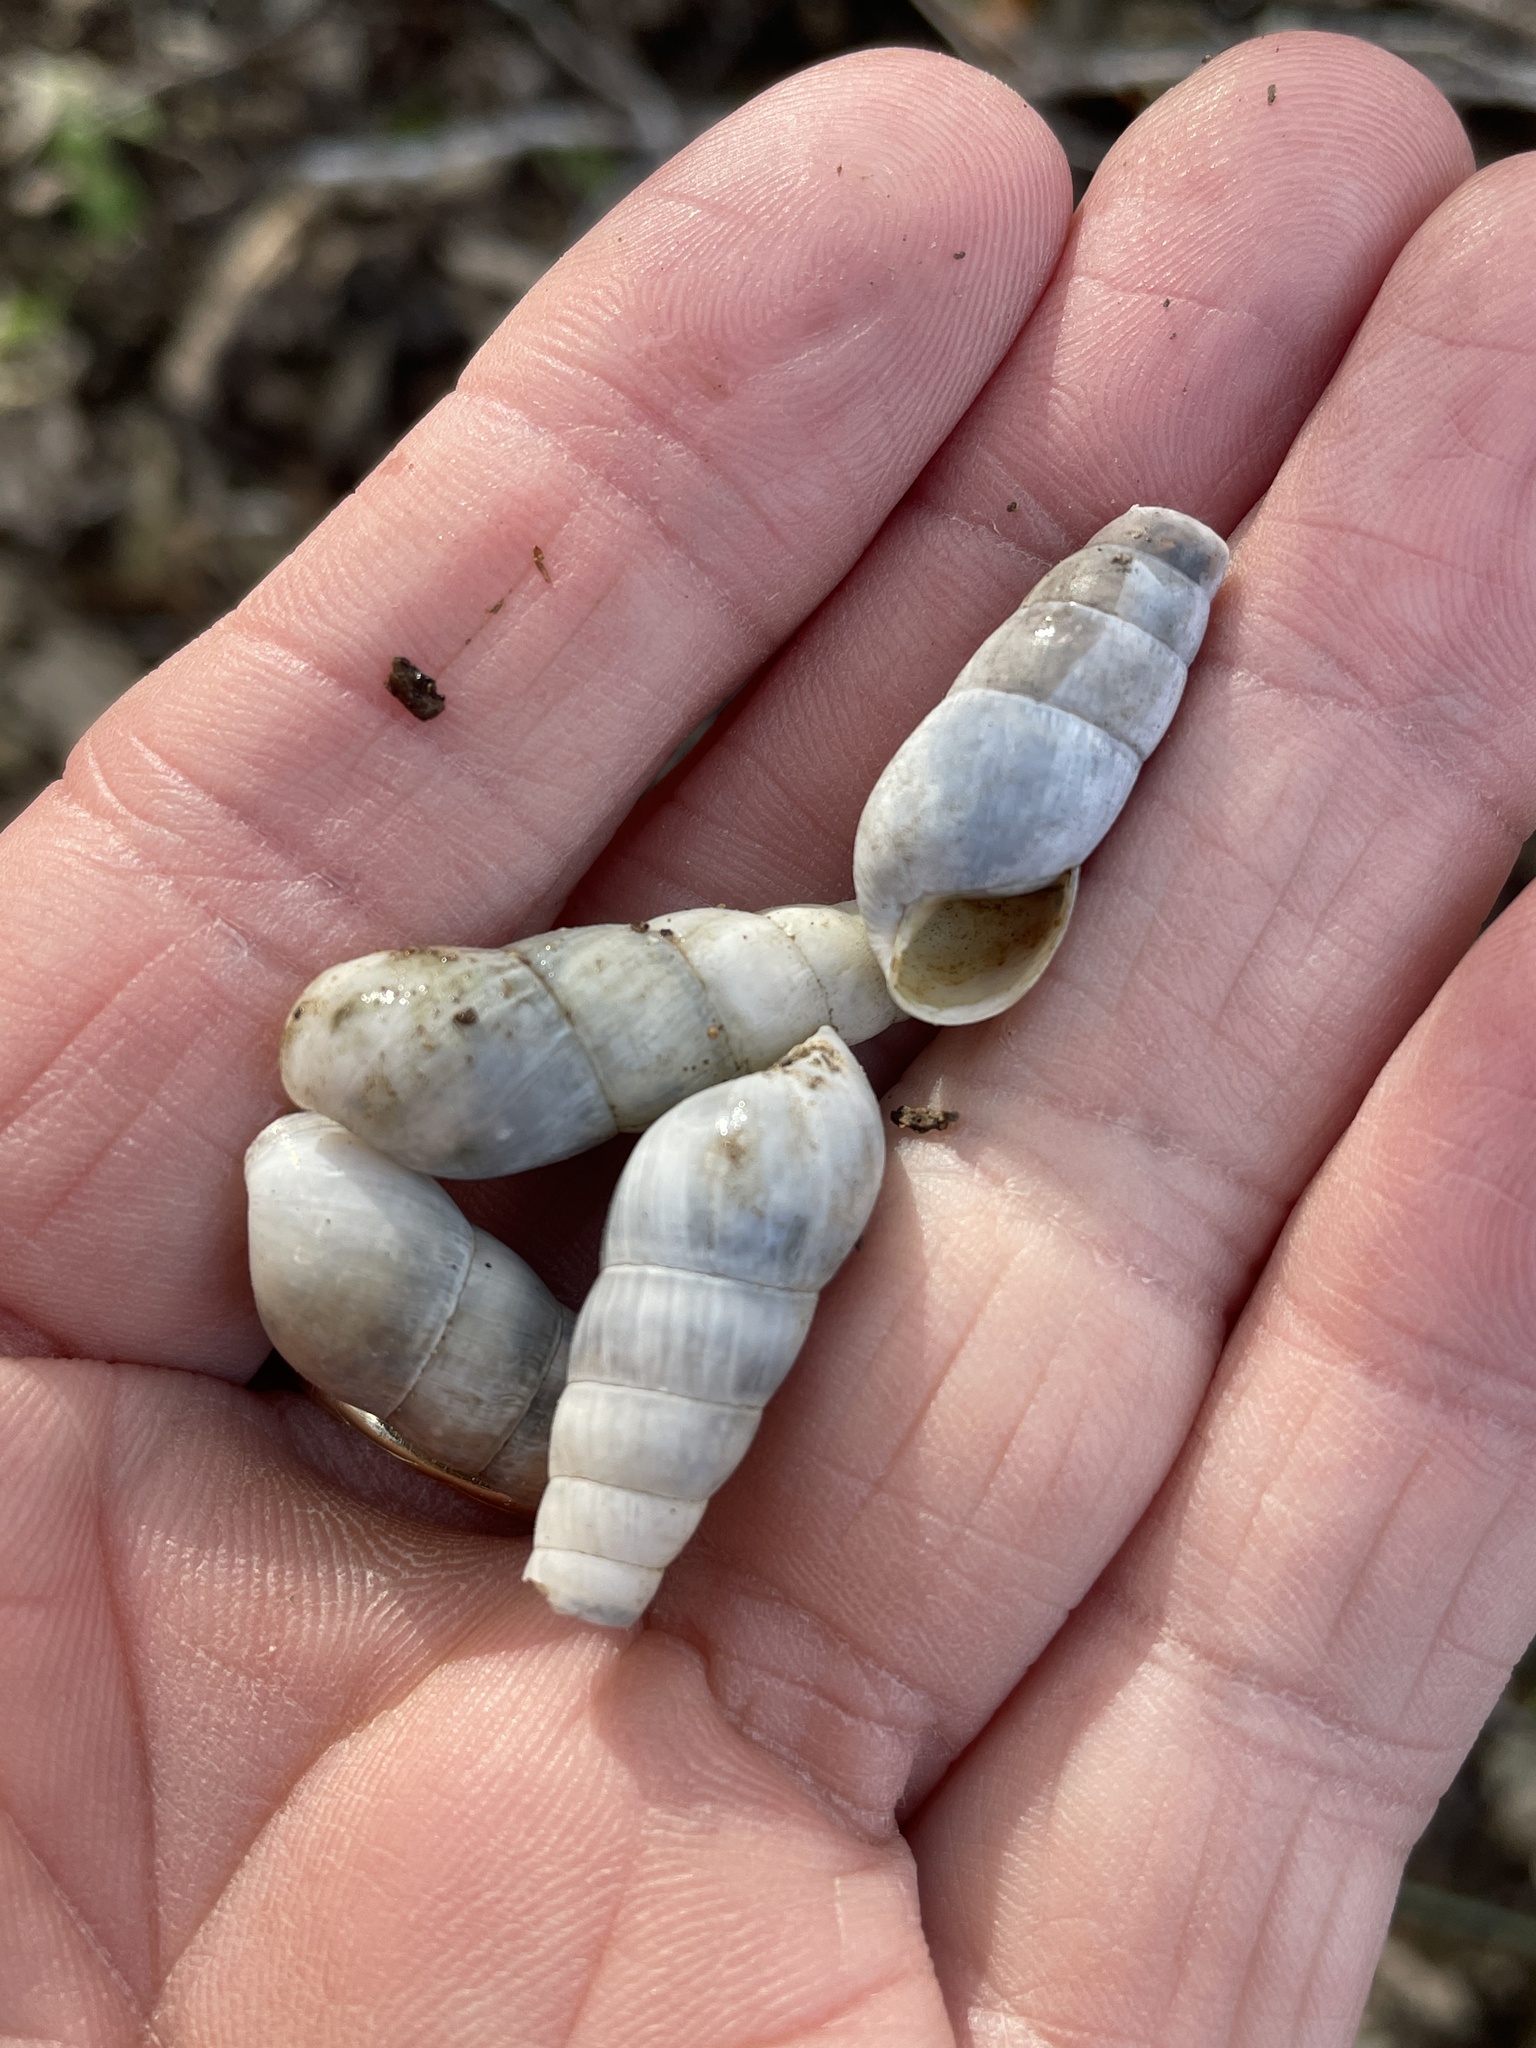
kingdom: Animalia
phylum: Mollusca
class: Gastropoda
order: Stylommatophora
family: Achatinidae
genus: Rumina
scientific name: Rumina decollata
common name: Decollate snail
